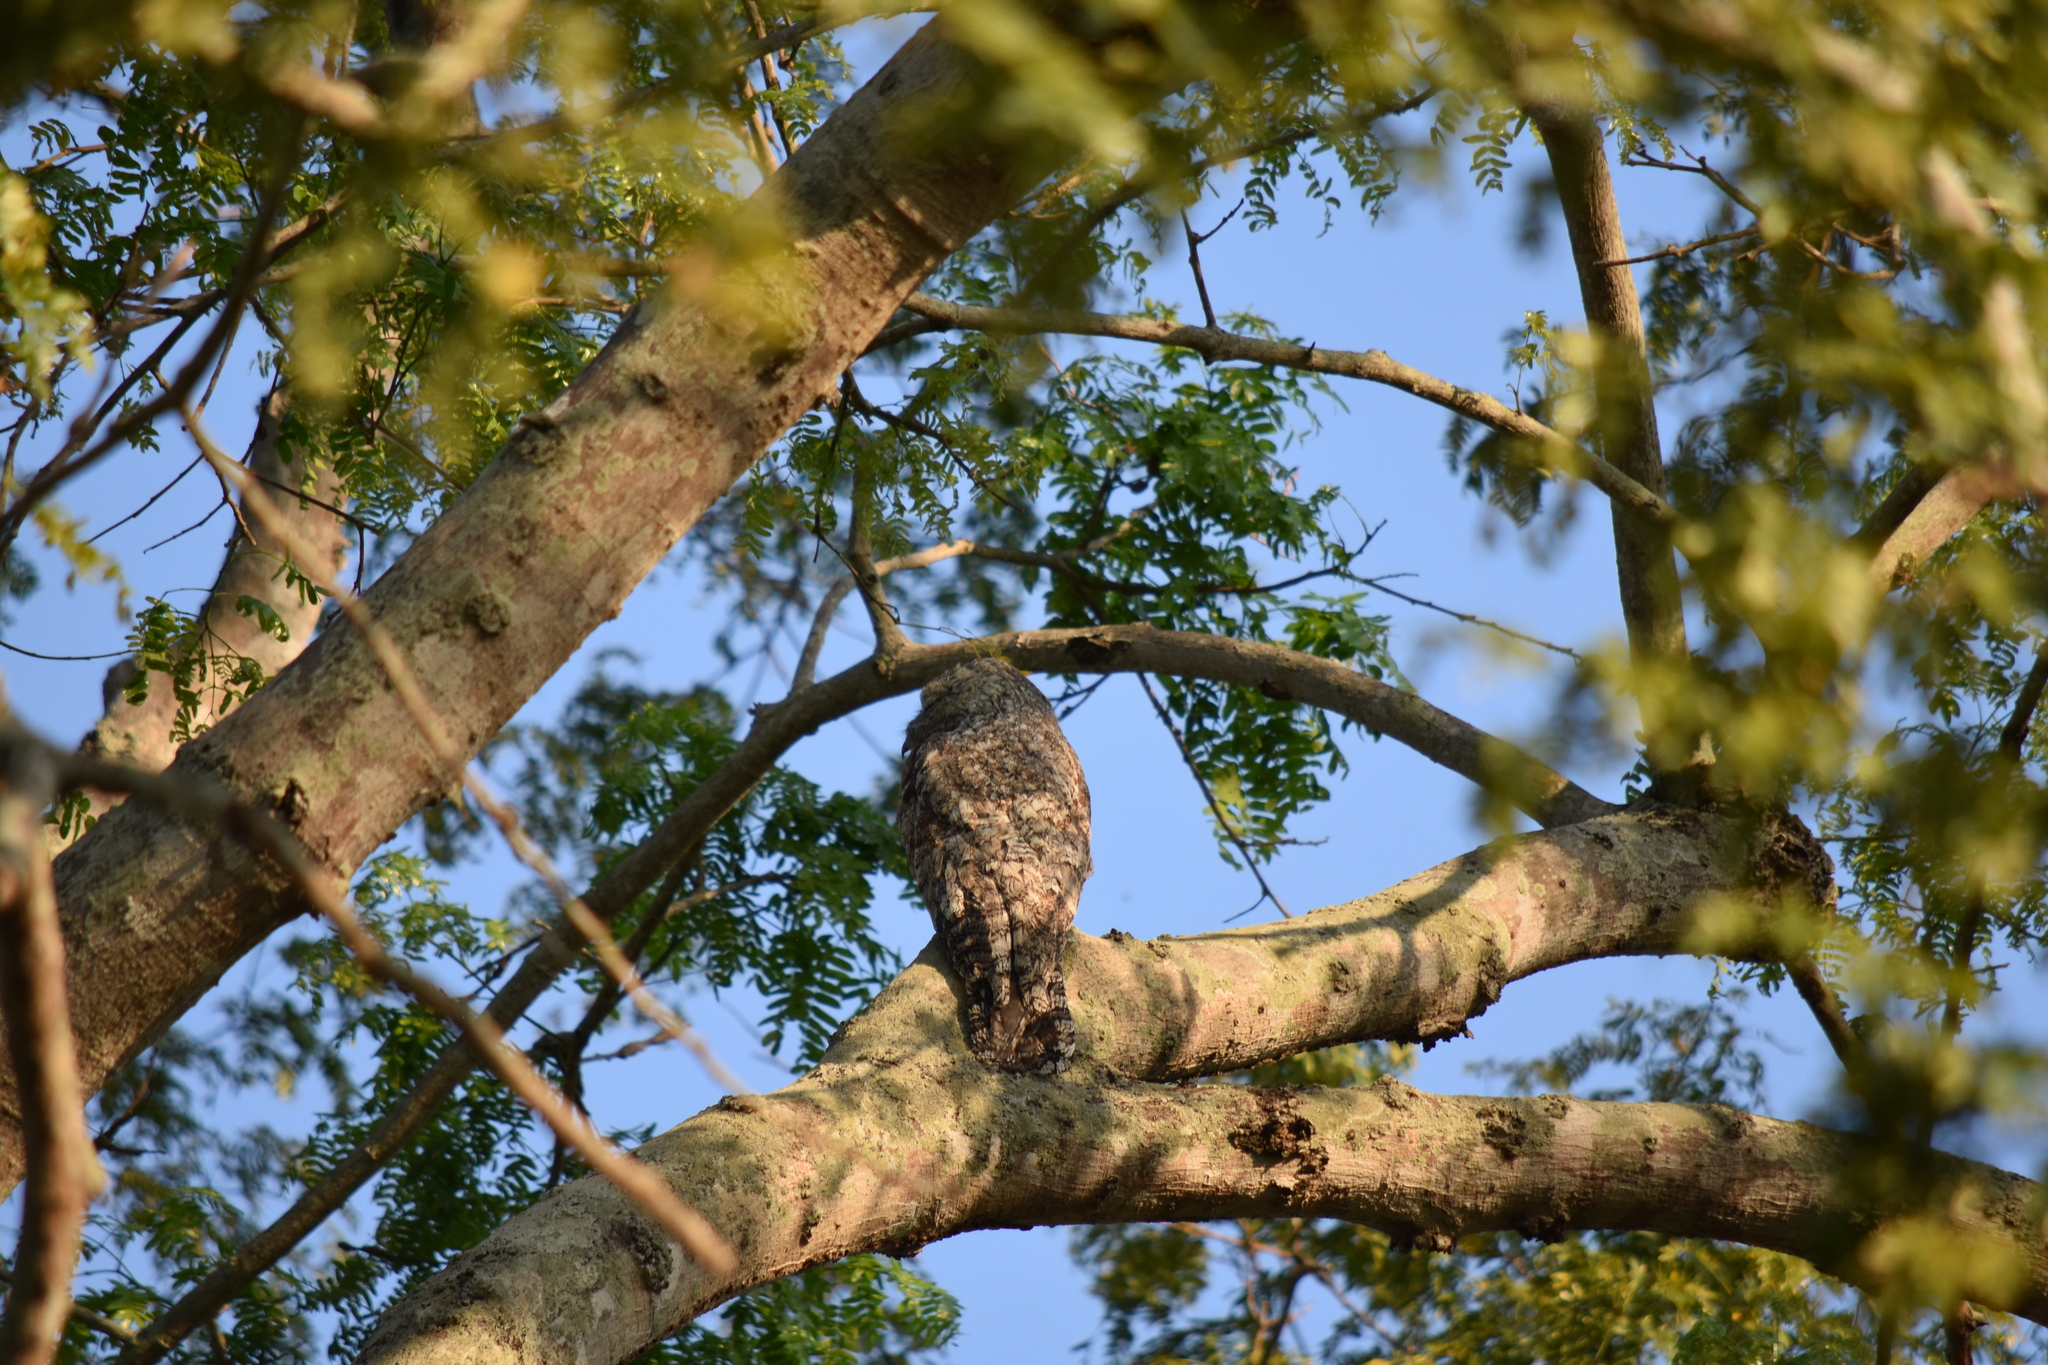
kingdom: Animalia
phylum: Chordata
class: Aves
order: Nyctibiiformes
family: Nyctibiidae
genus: Nyctibius
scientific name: Nyctibius grandis
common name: Great potoo
